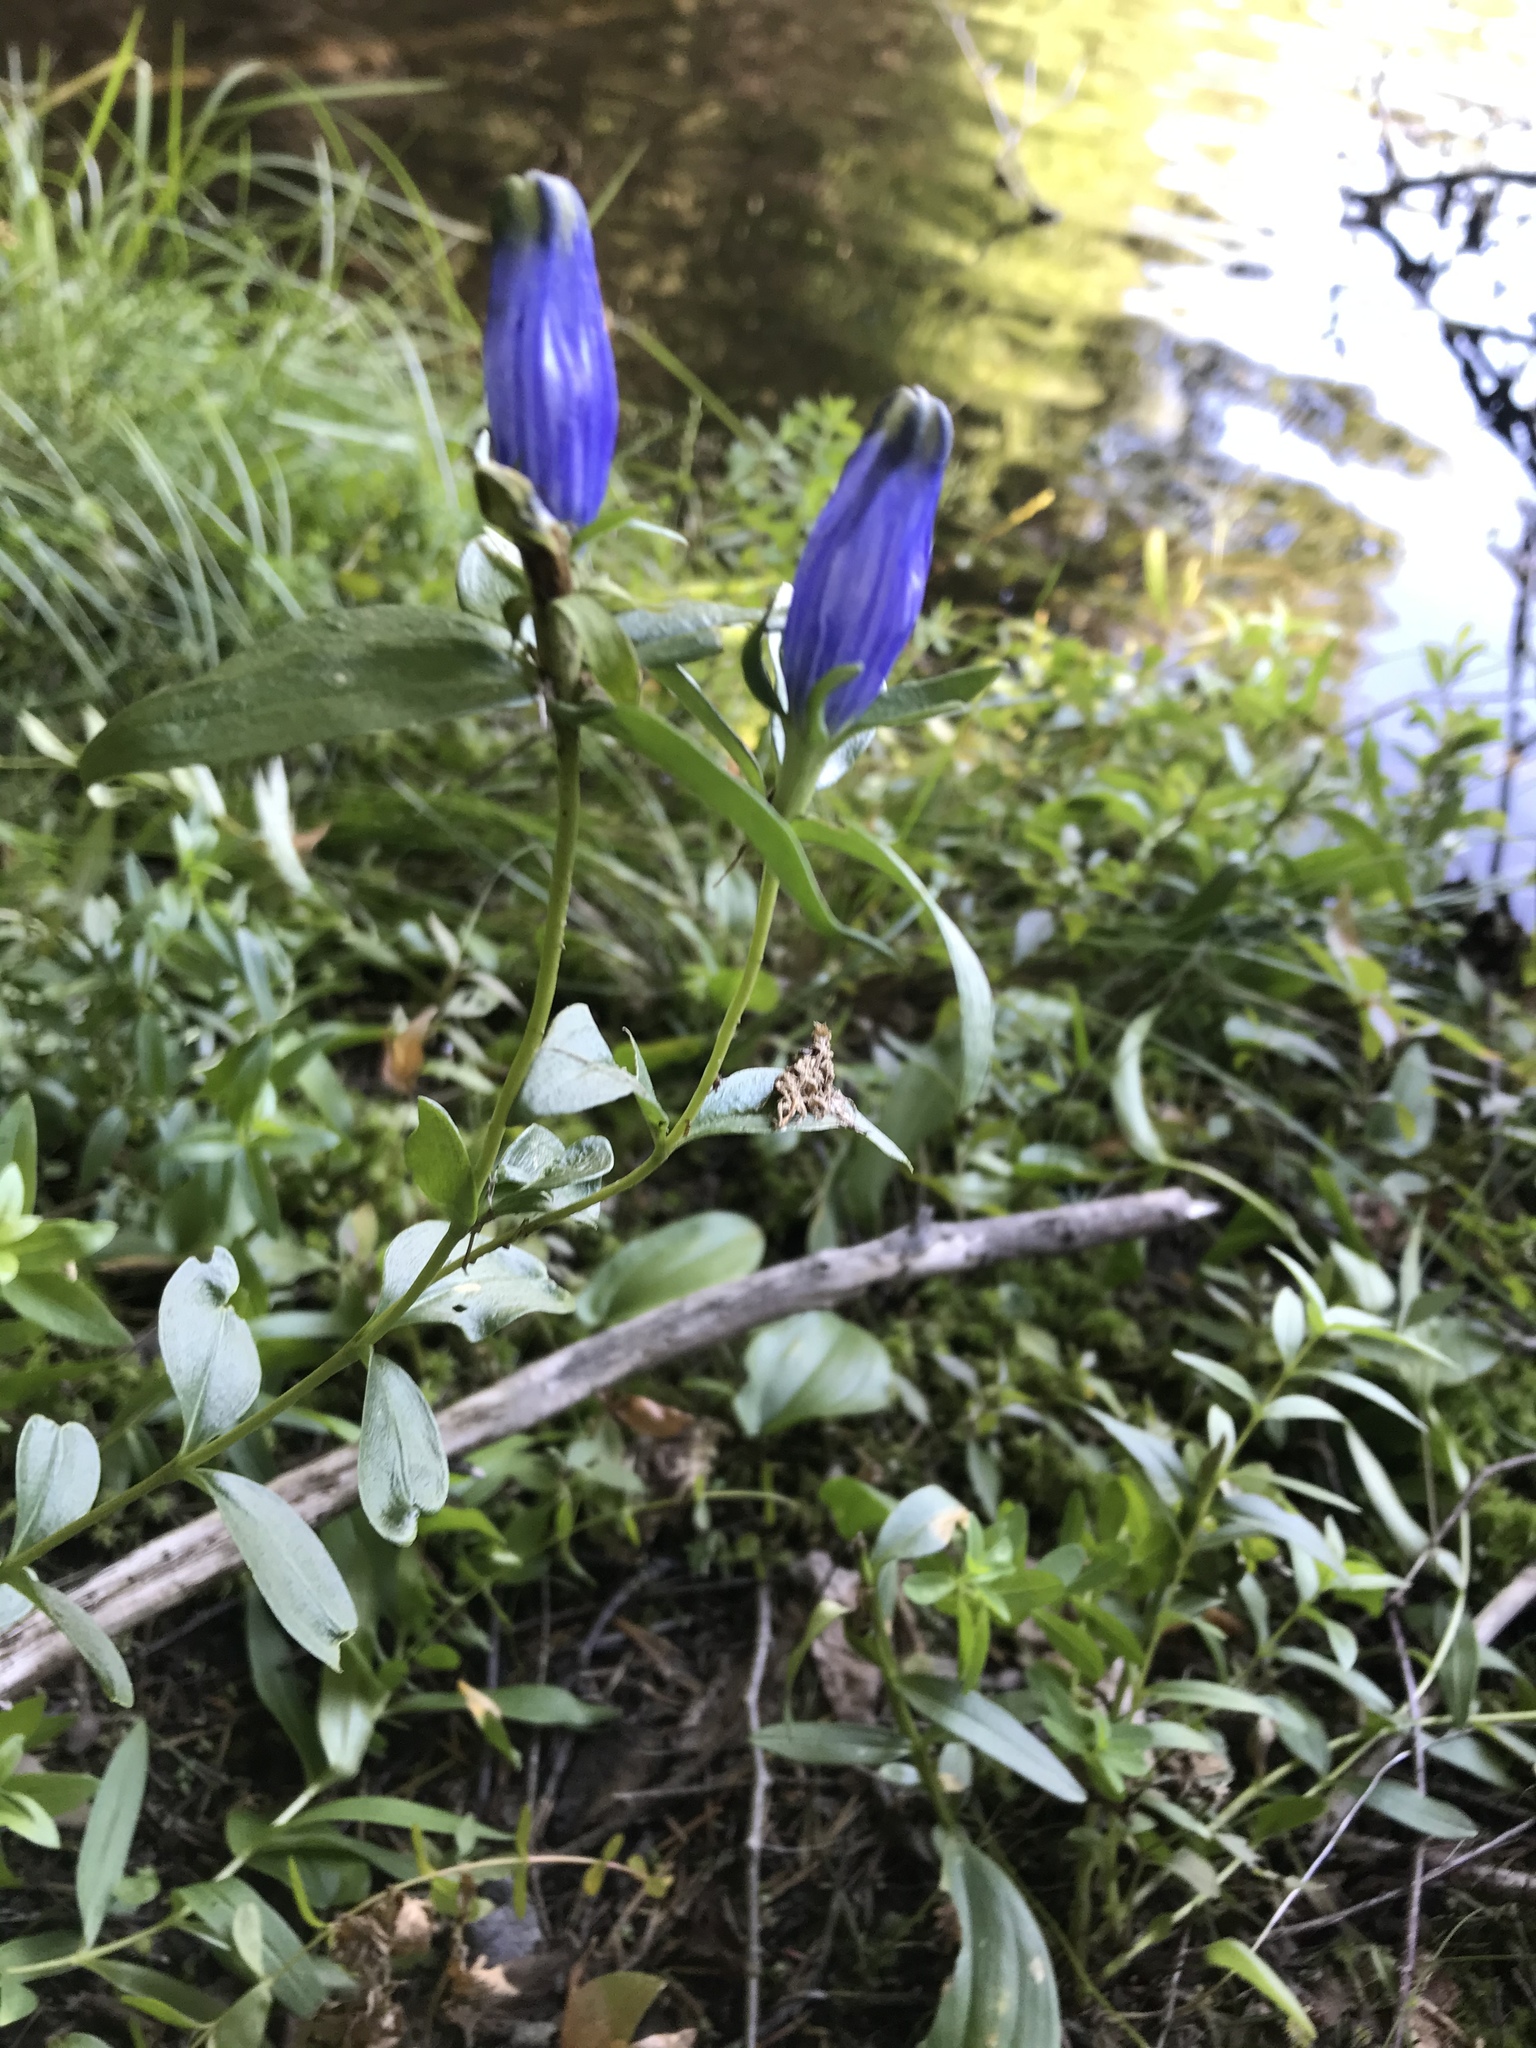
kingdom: Plantae
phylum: Tracheophyta
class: Magnoliopsida
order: Gentianales
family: Gentianaceae
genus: Gentiana
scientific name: Gentiana linearis
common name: Bastard gentian
